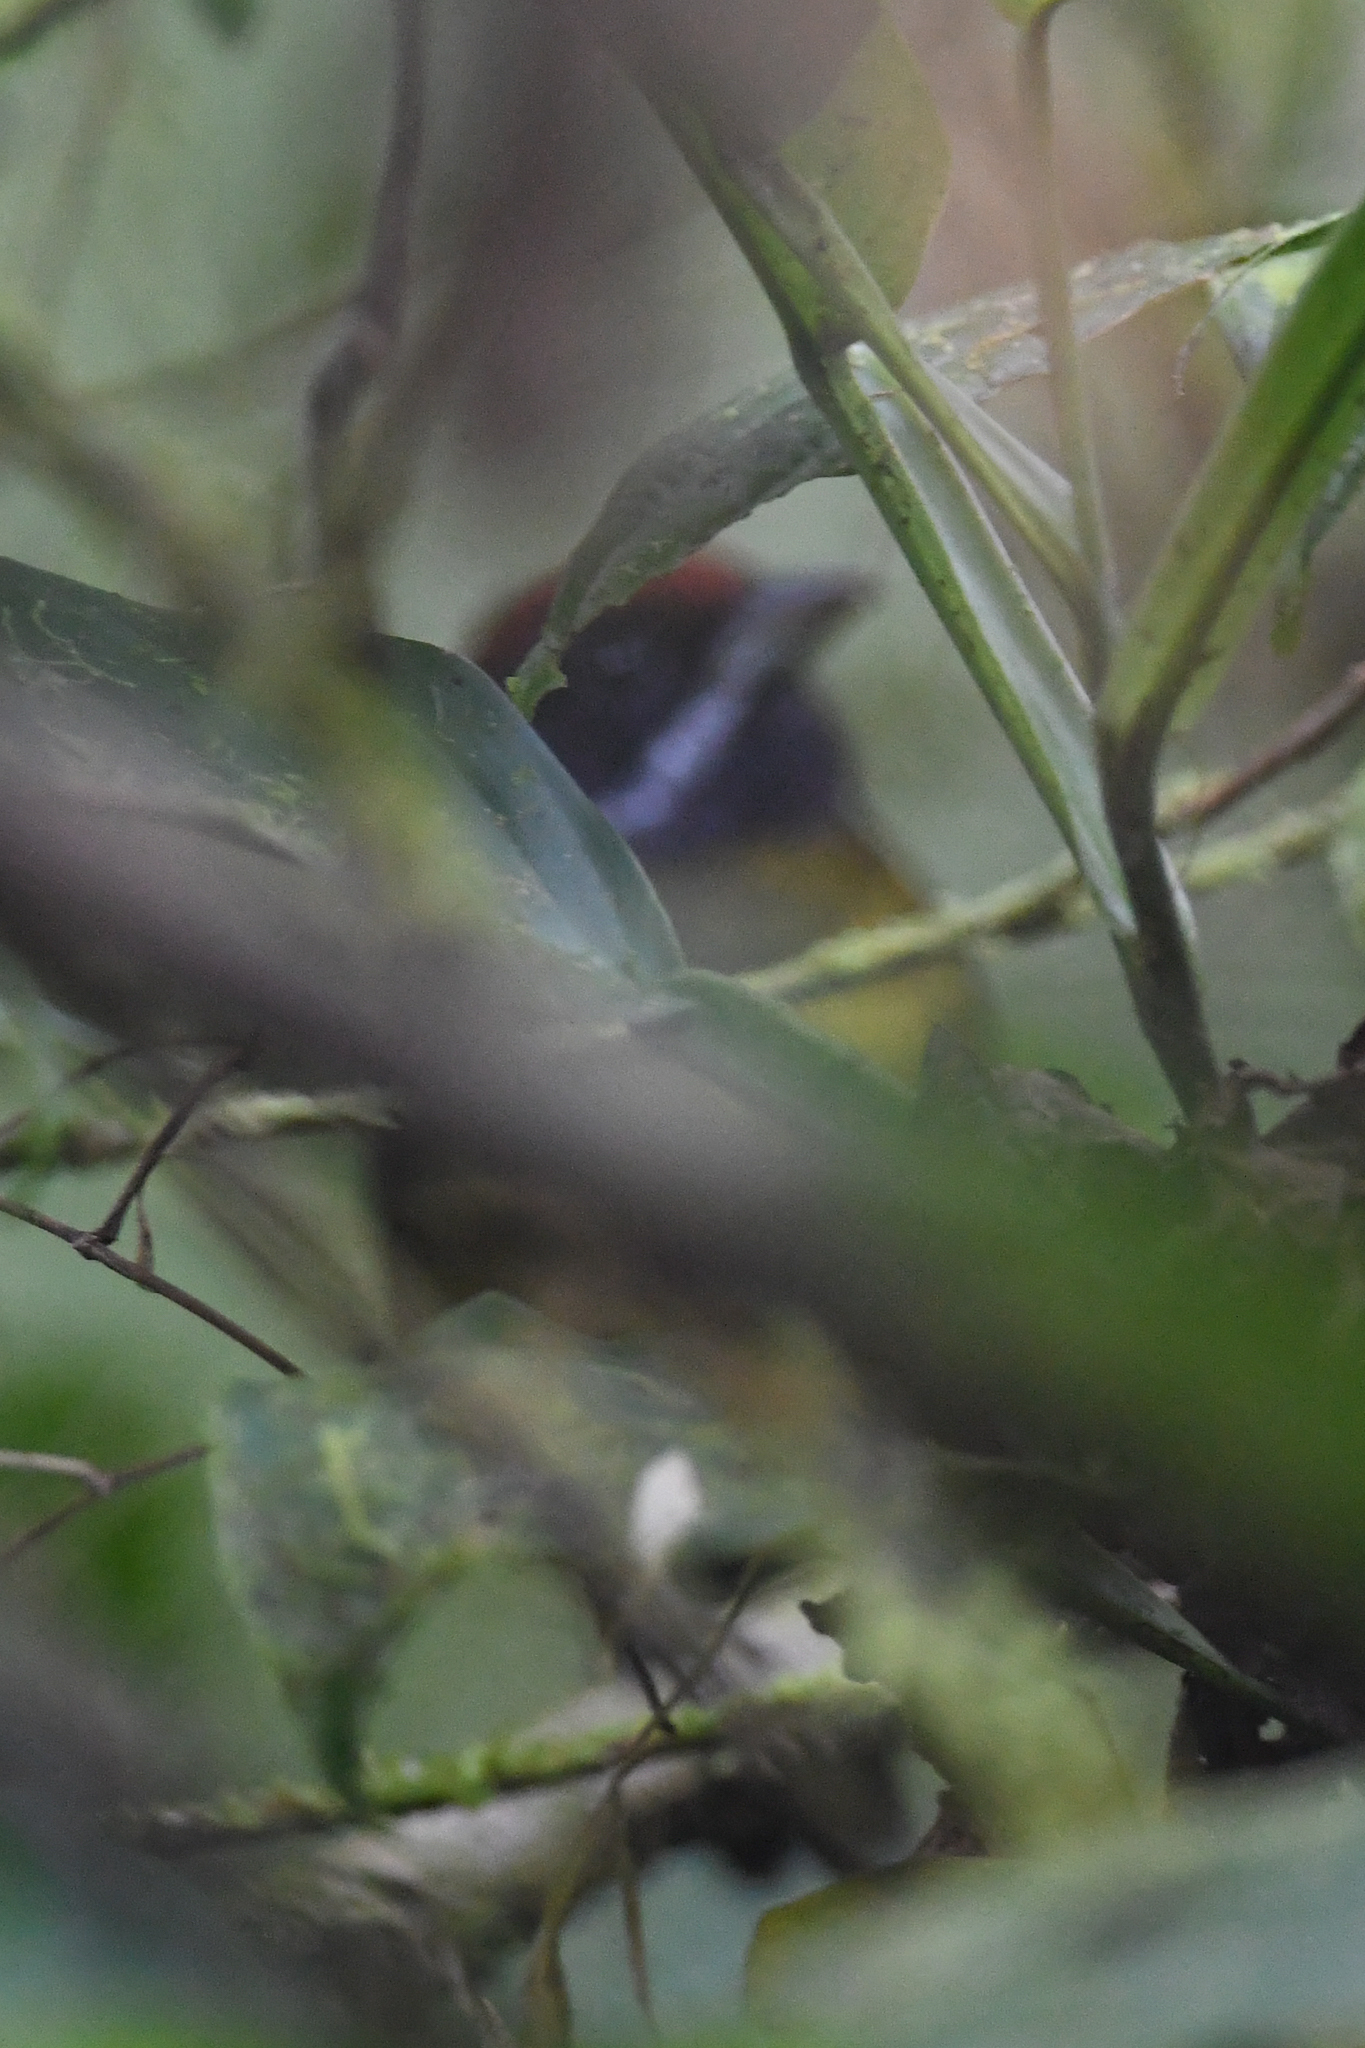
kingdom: Animalia
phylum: Chordata
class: Aves
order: Passeriformes
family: Passerellidae
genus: Arremon
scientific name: Arremon crassirostris
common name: Sooty-faced finch
